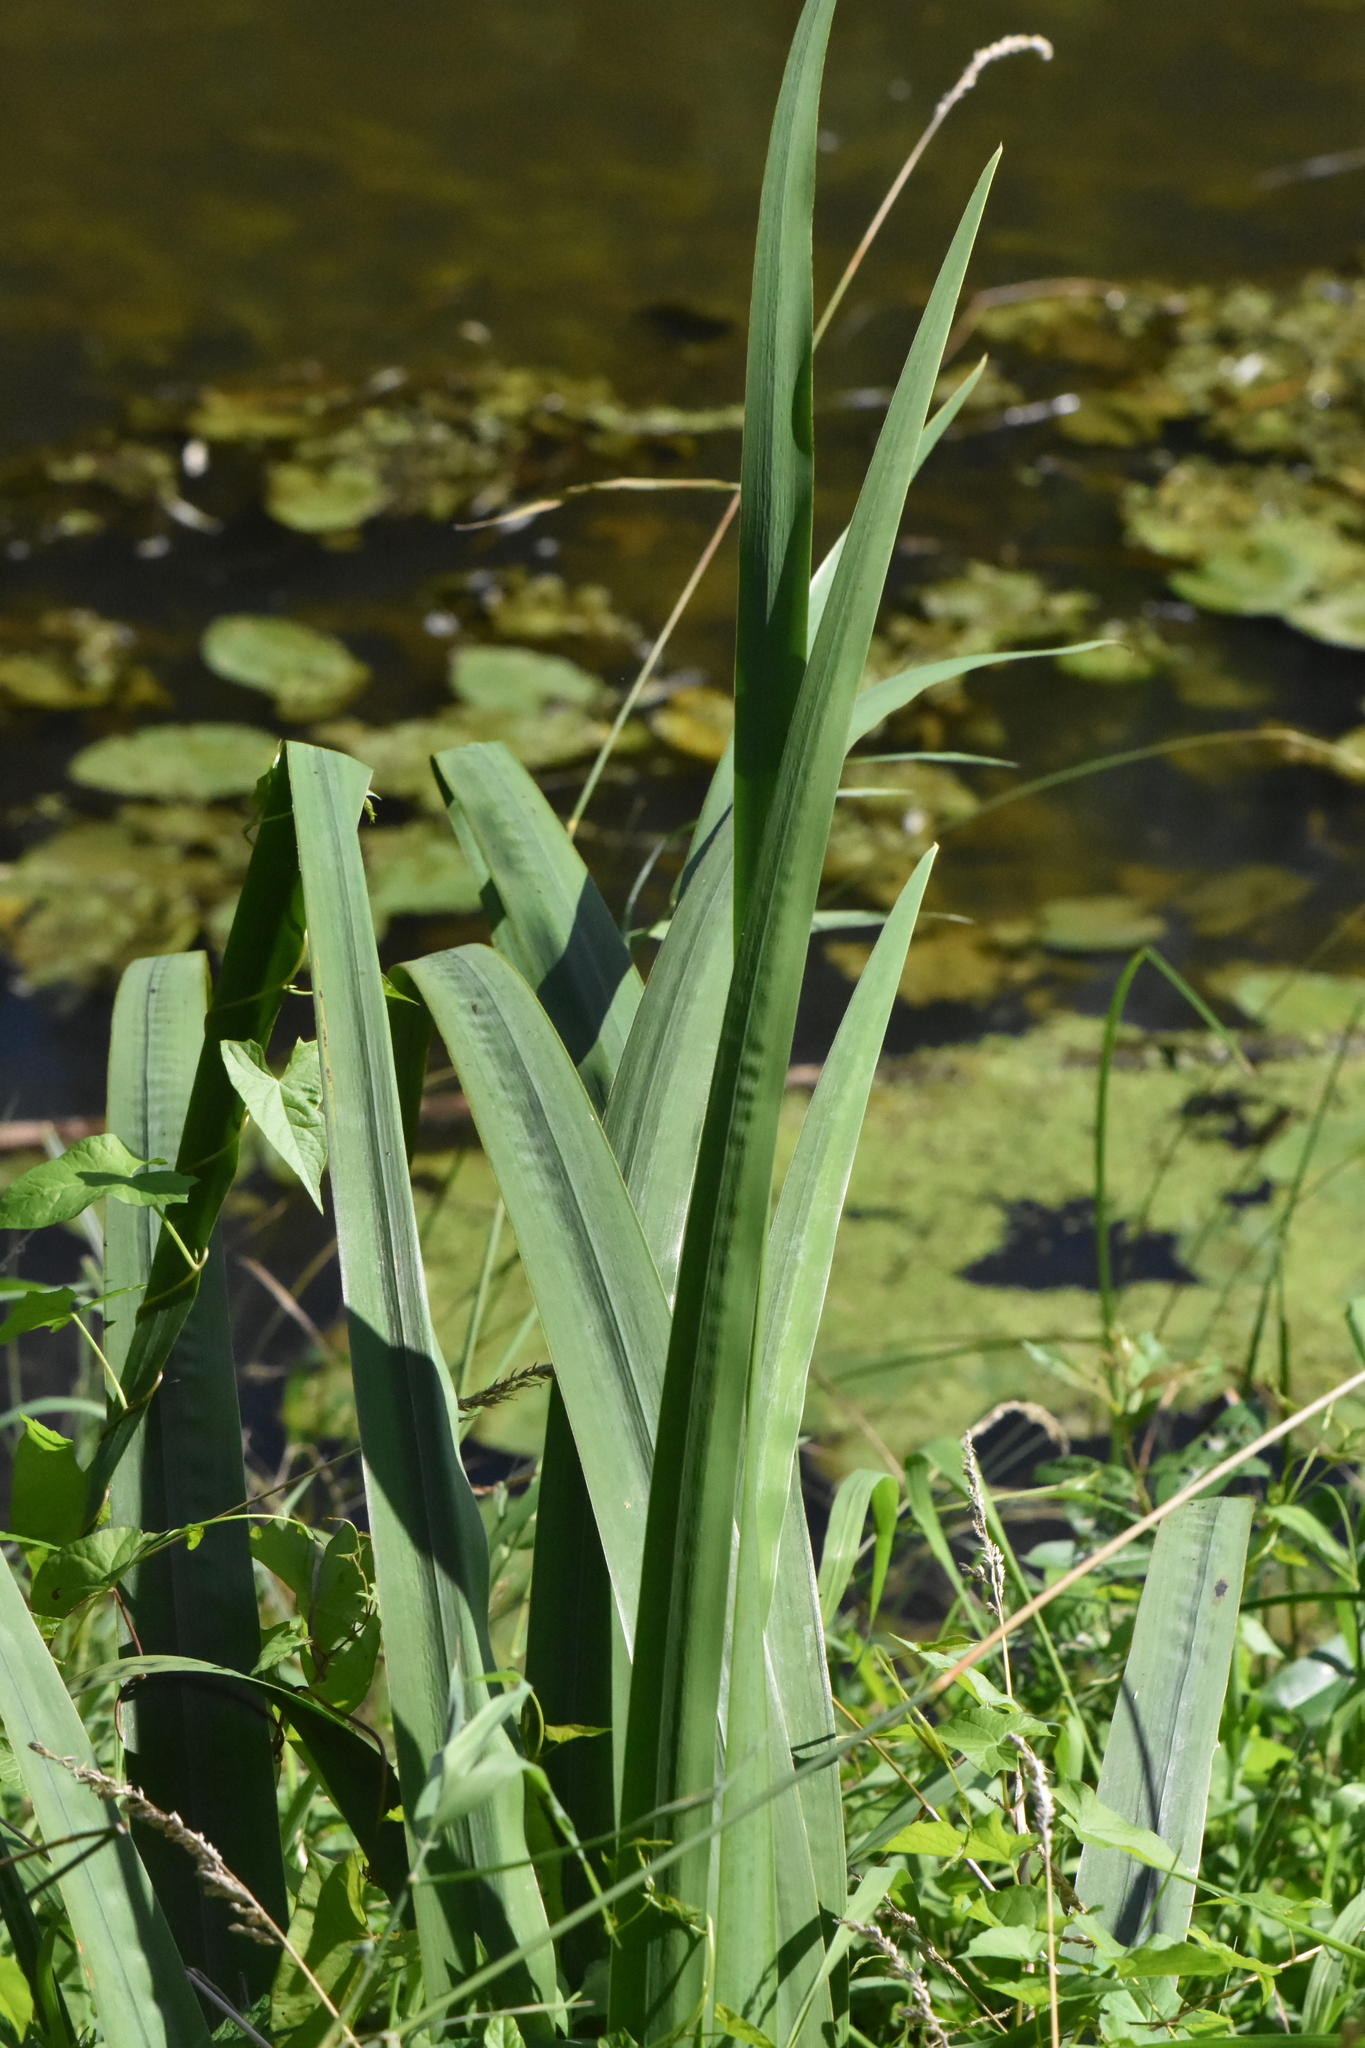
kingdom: Plantae
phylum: Tracheophyta
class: Liliopsida
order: Asparagales
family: Iridaceae
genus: Iris
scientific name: Iris pseudacorus
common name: Yellow flag
